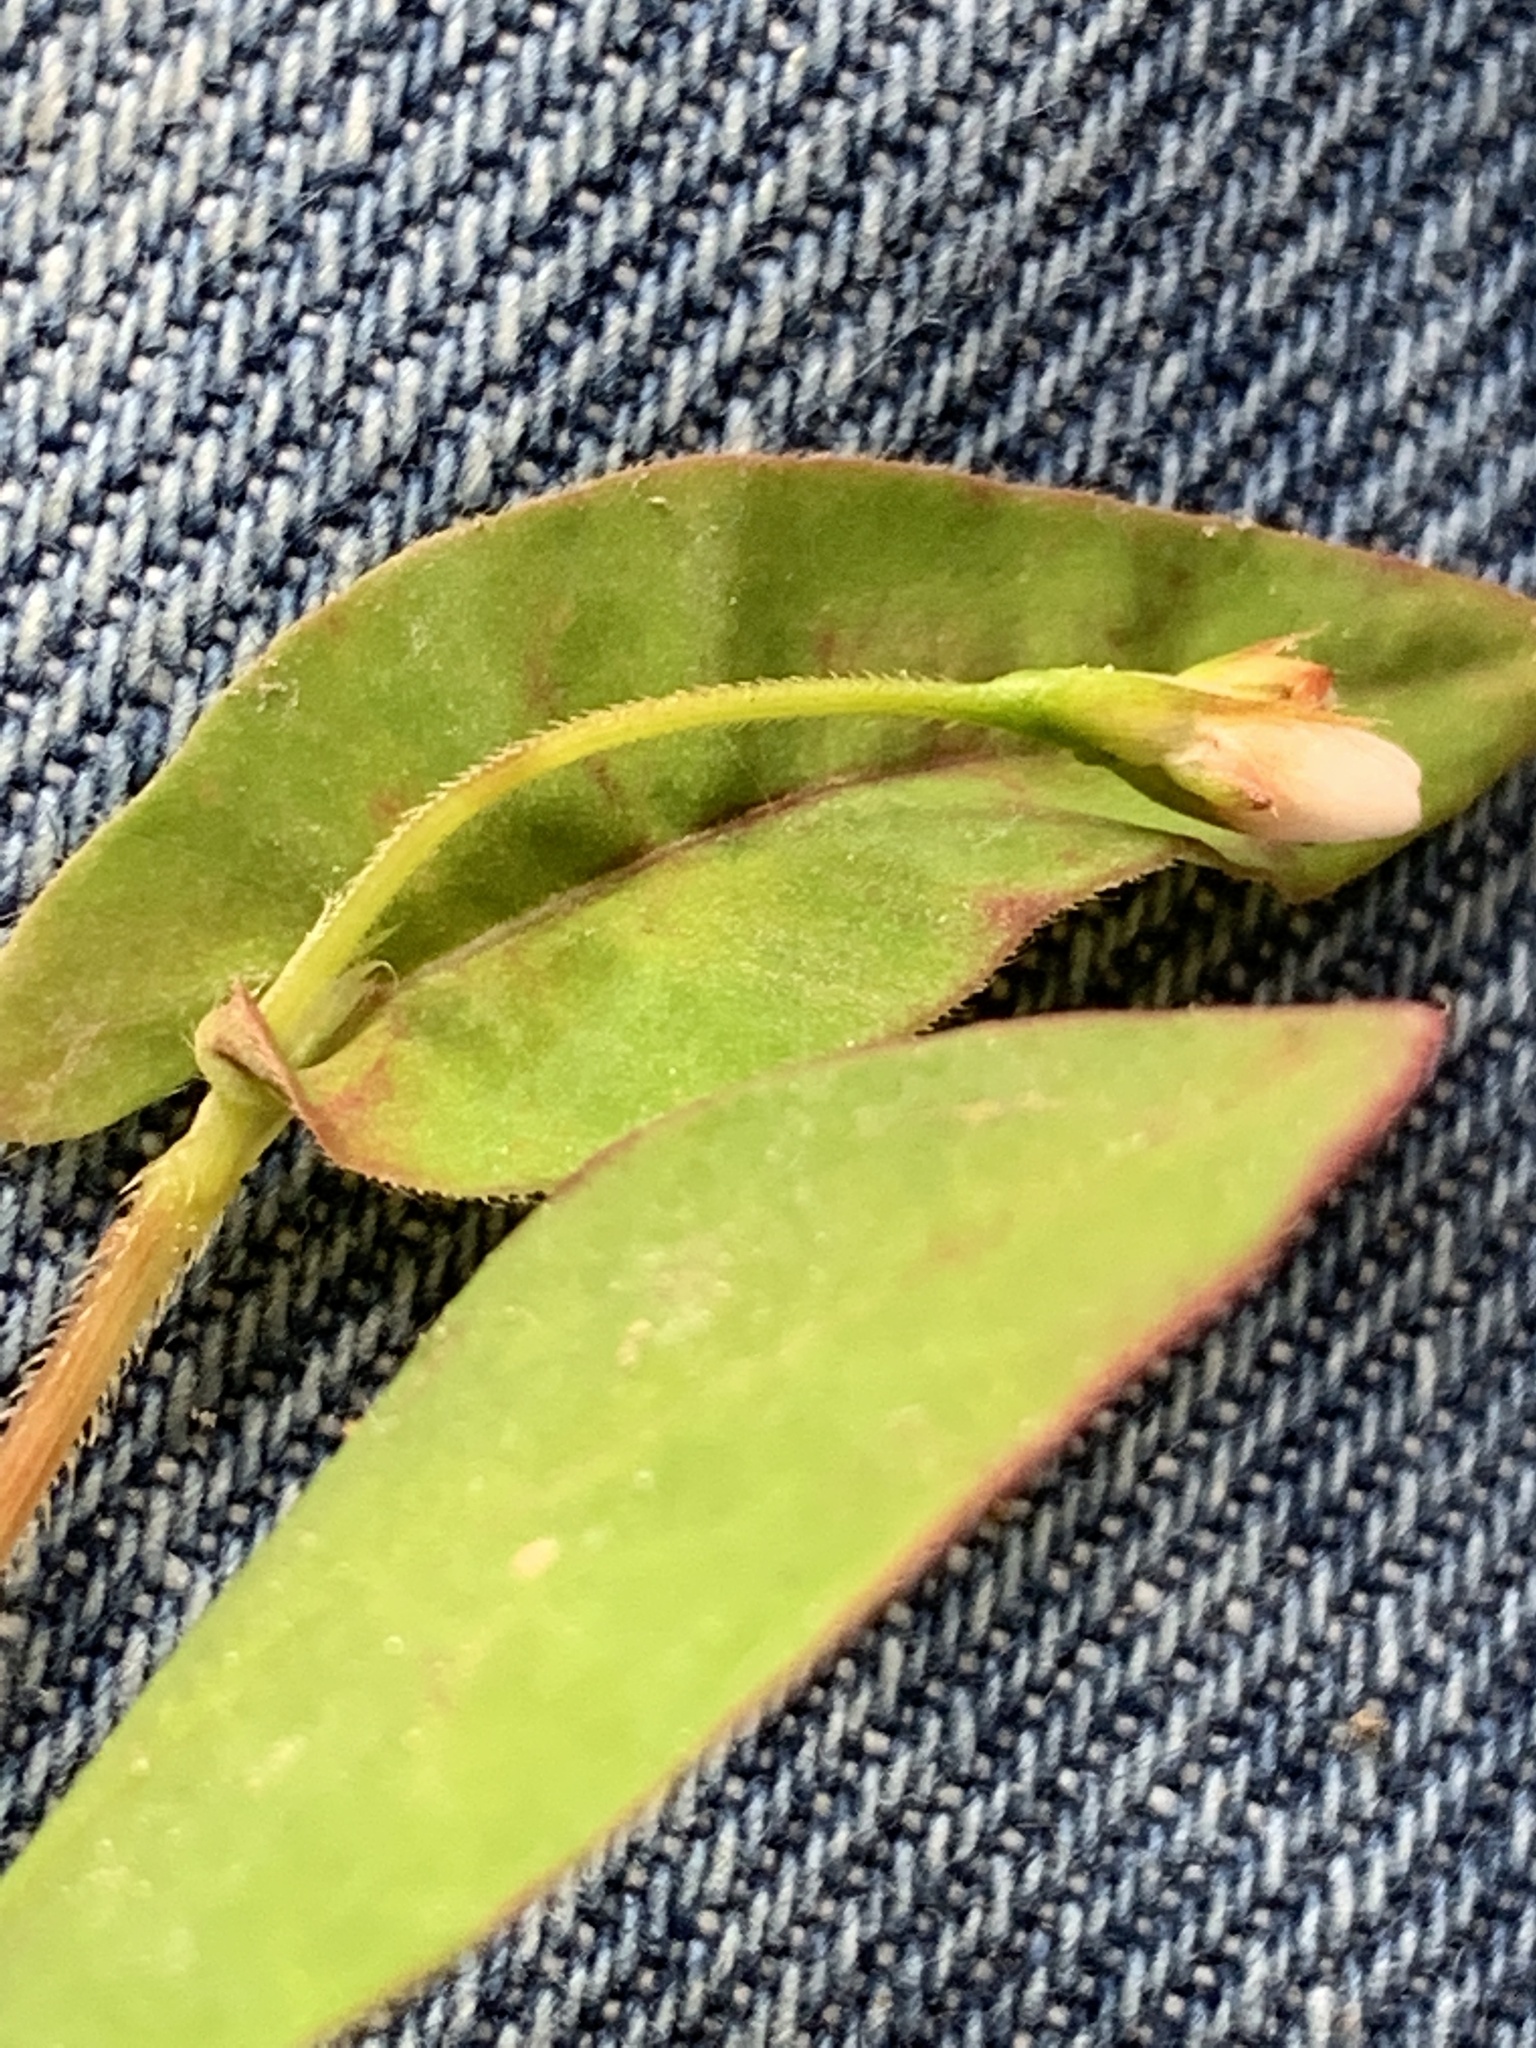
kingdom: Plantae
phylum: Tracheophyta
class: Magnoliopsida
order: Caryophyllales
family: Polygonaceae
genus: Persicaria
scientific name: Persicaria sagittata
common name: American tearthumb
